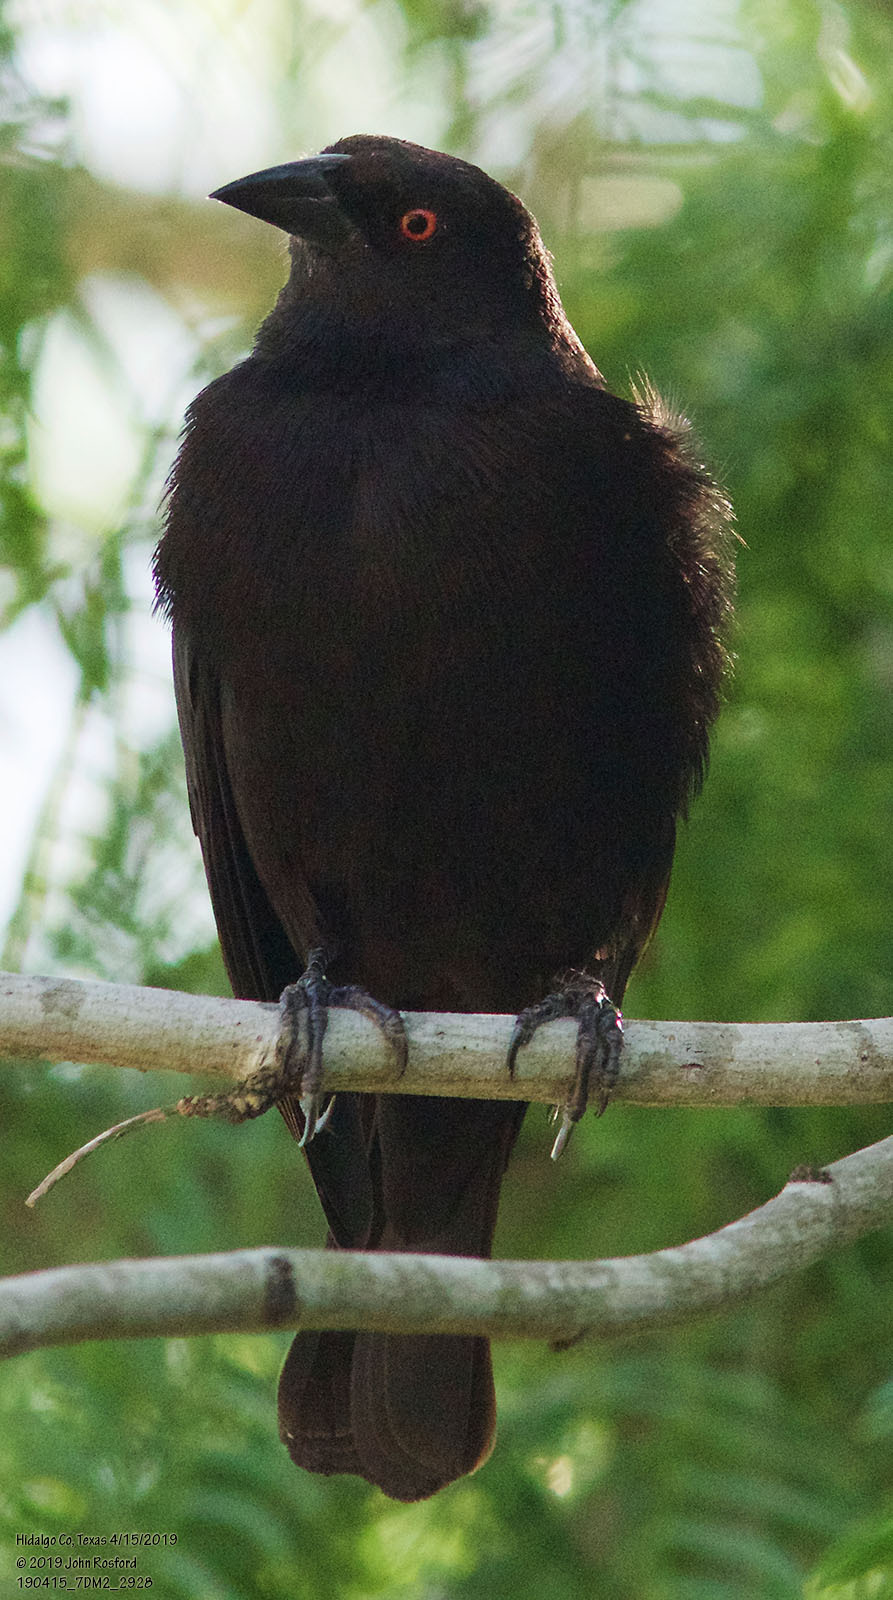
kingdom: Animalia
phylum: Chordata
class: Aves
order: Passeriformes
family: Icteridae
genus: Molothrus
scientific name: Molothrus aeneus
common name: Bronzed cowbird
